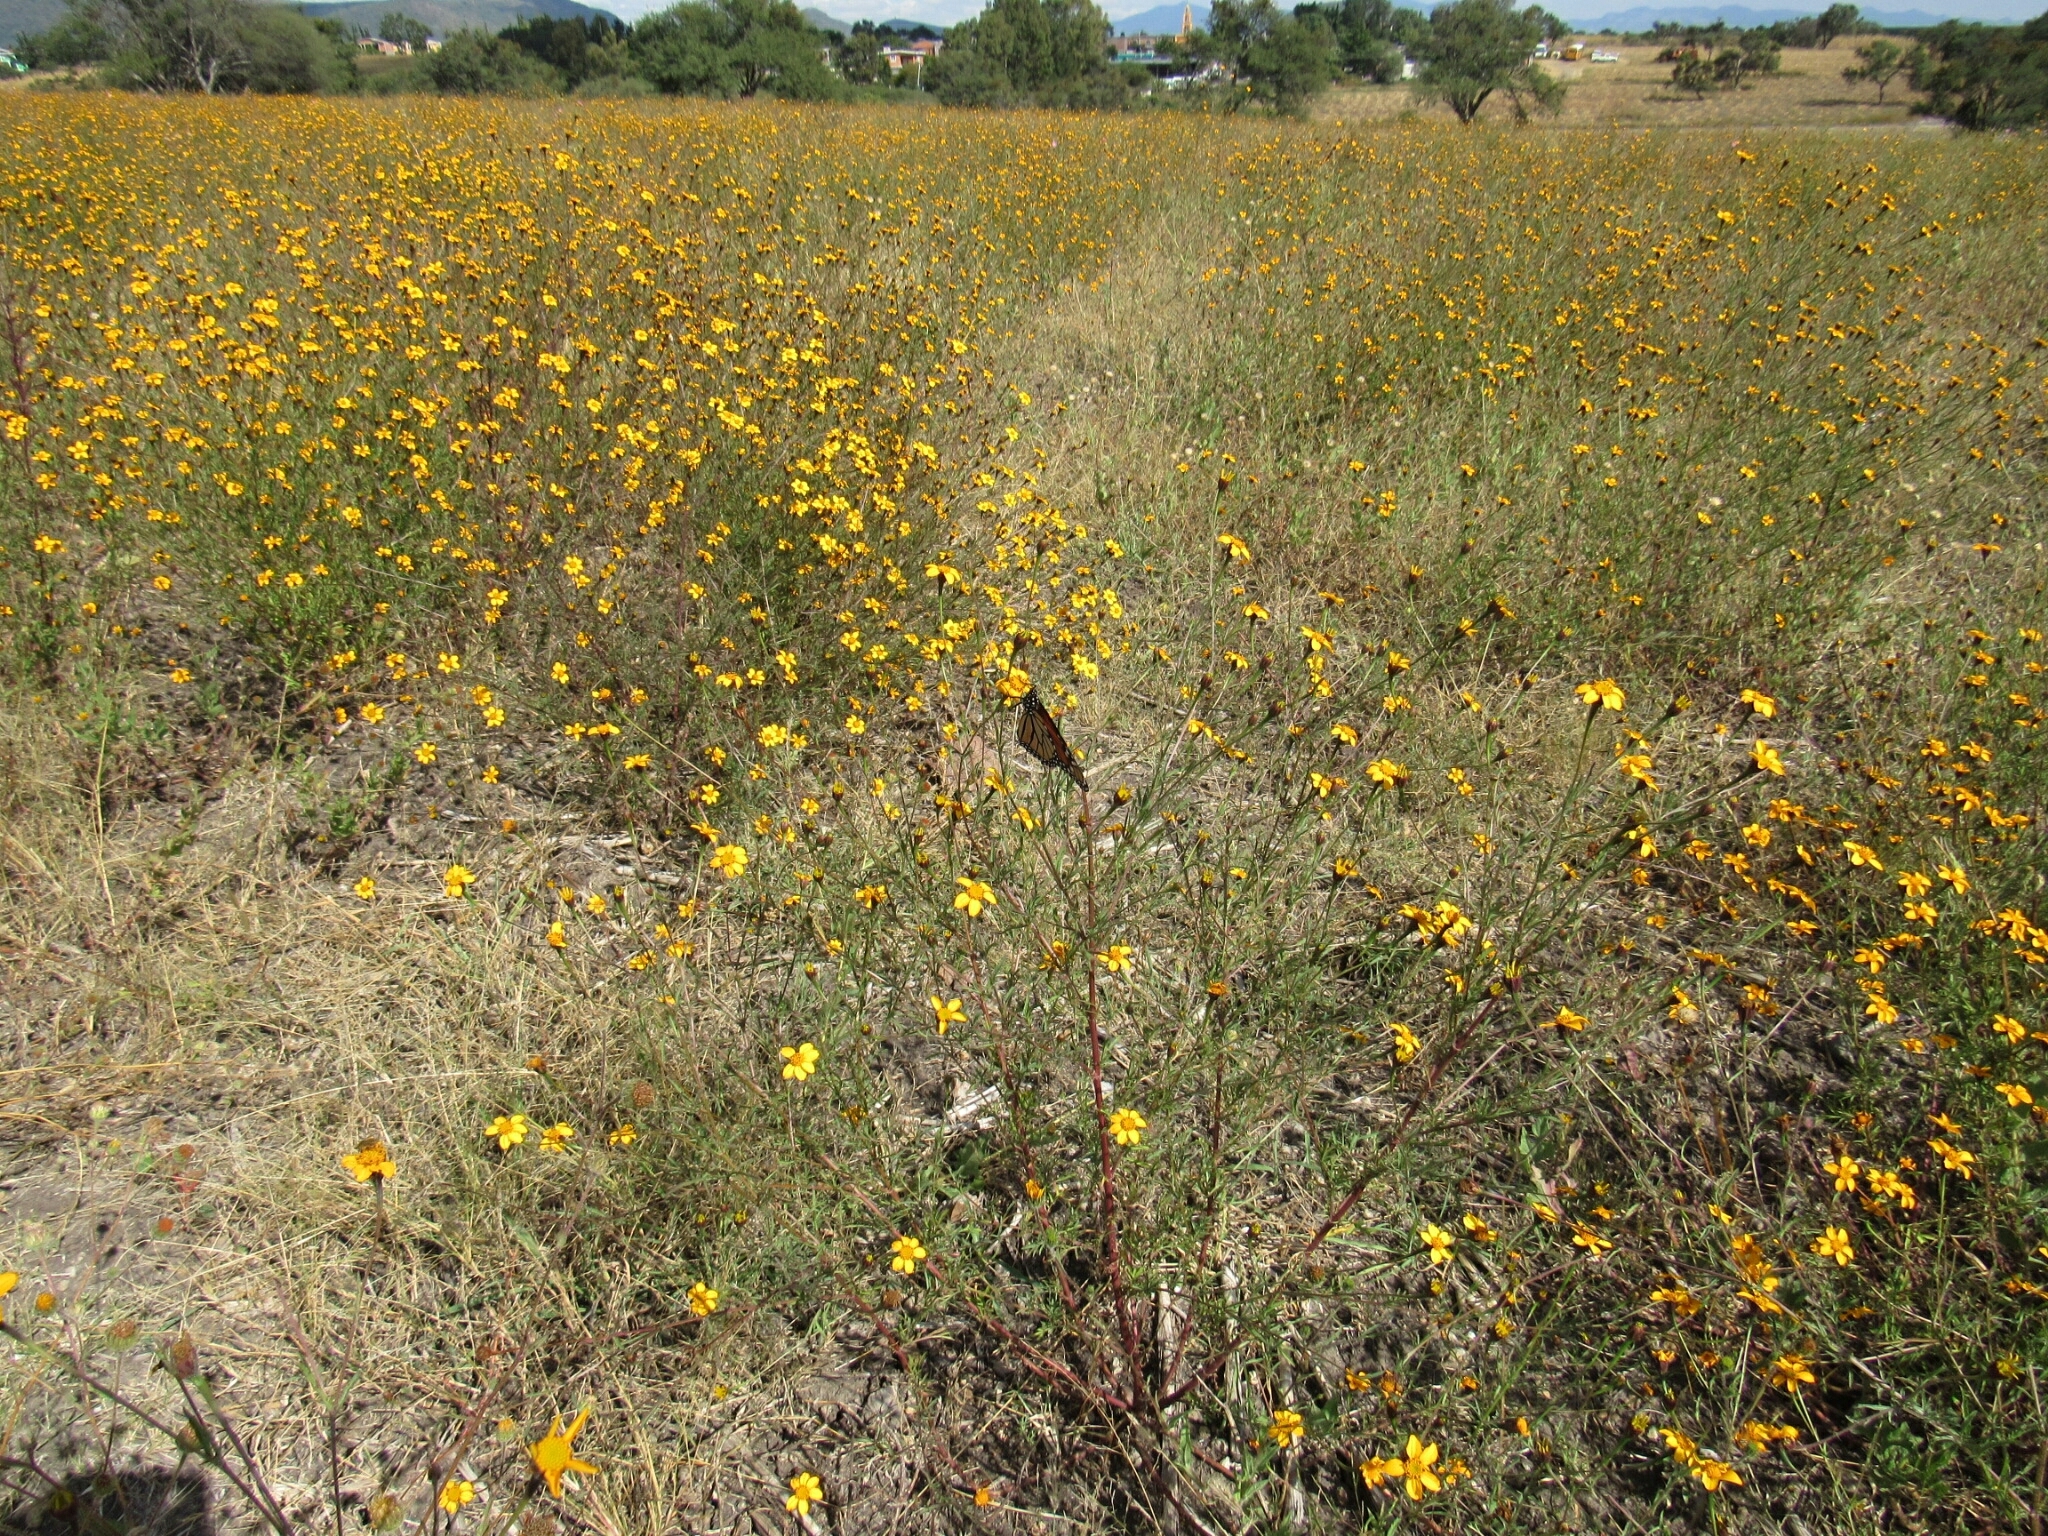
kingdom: Animalia
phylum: Arthropoda
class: Insecta
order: Lepidoptera
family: Nymphalidae
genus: Danaus
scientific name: Danaus plexippus
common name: Monarch
